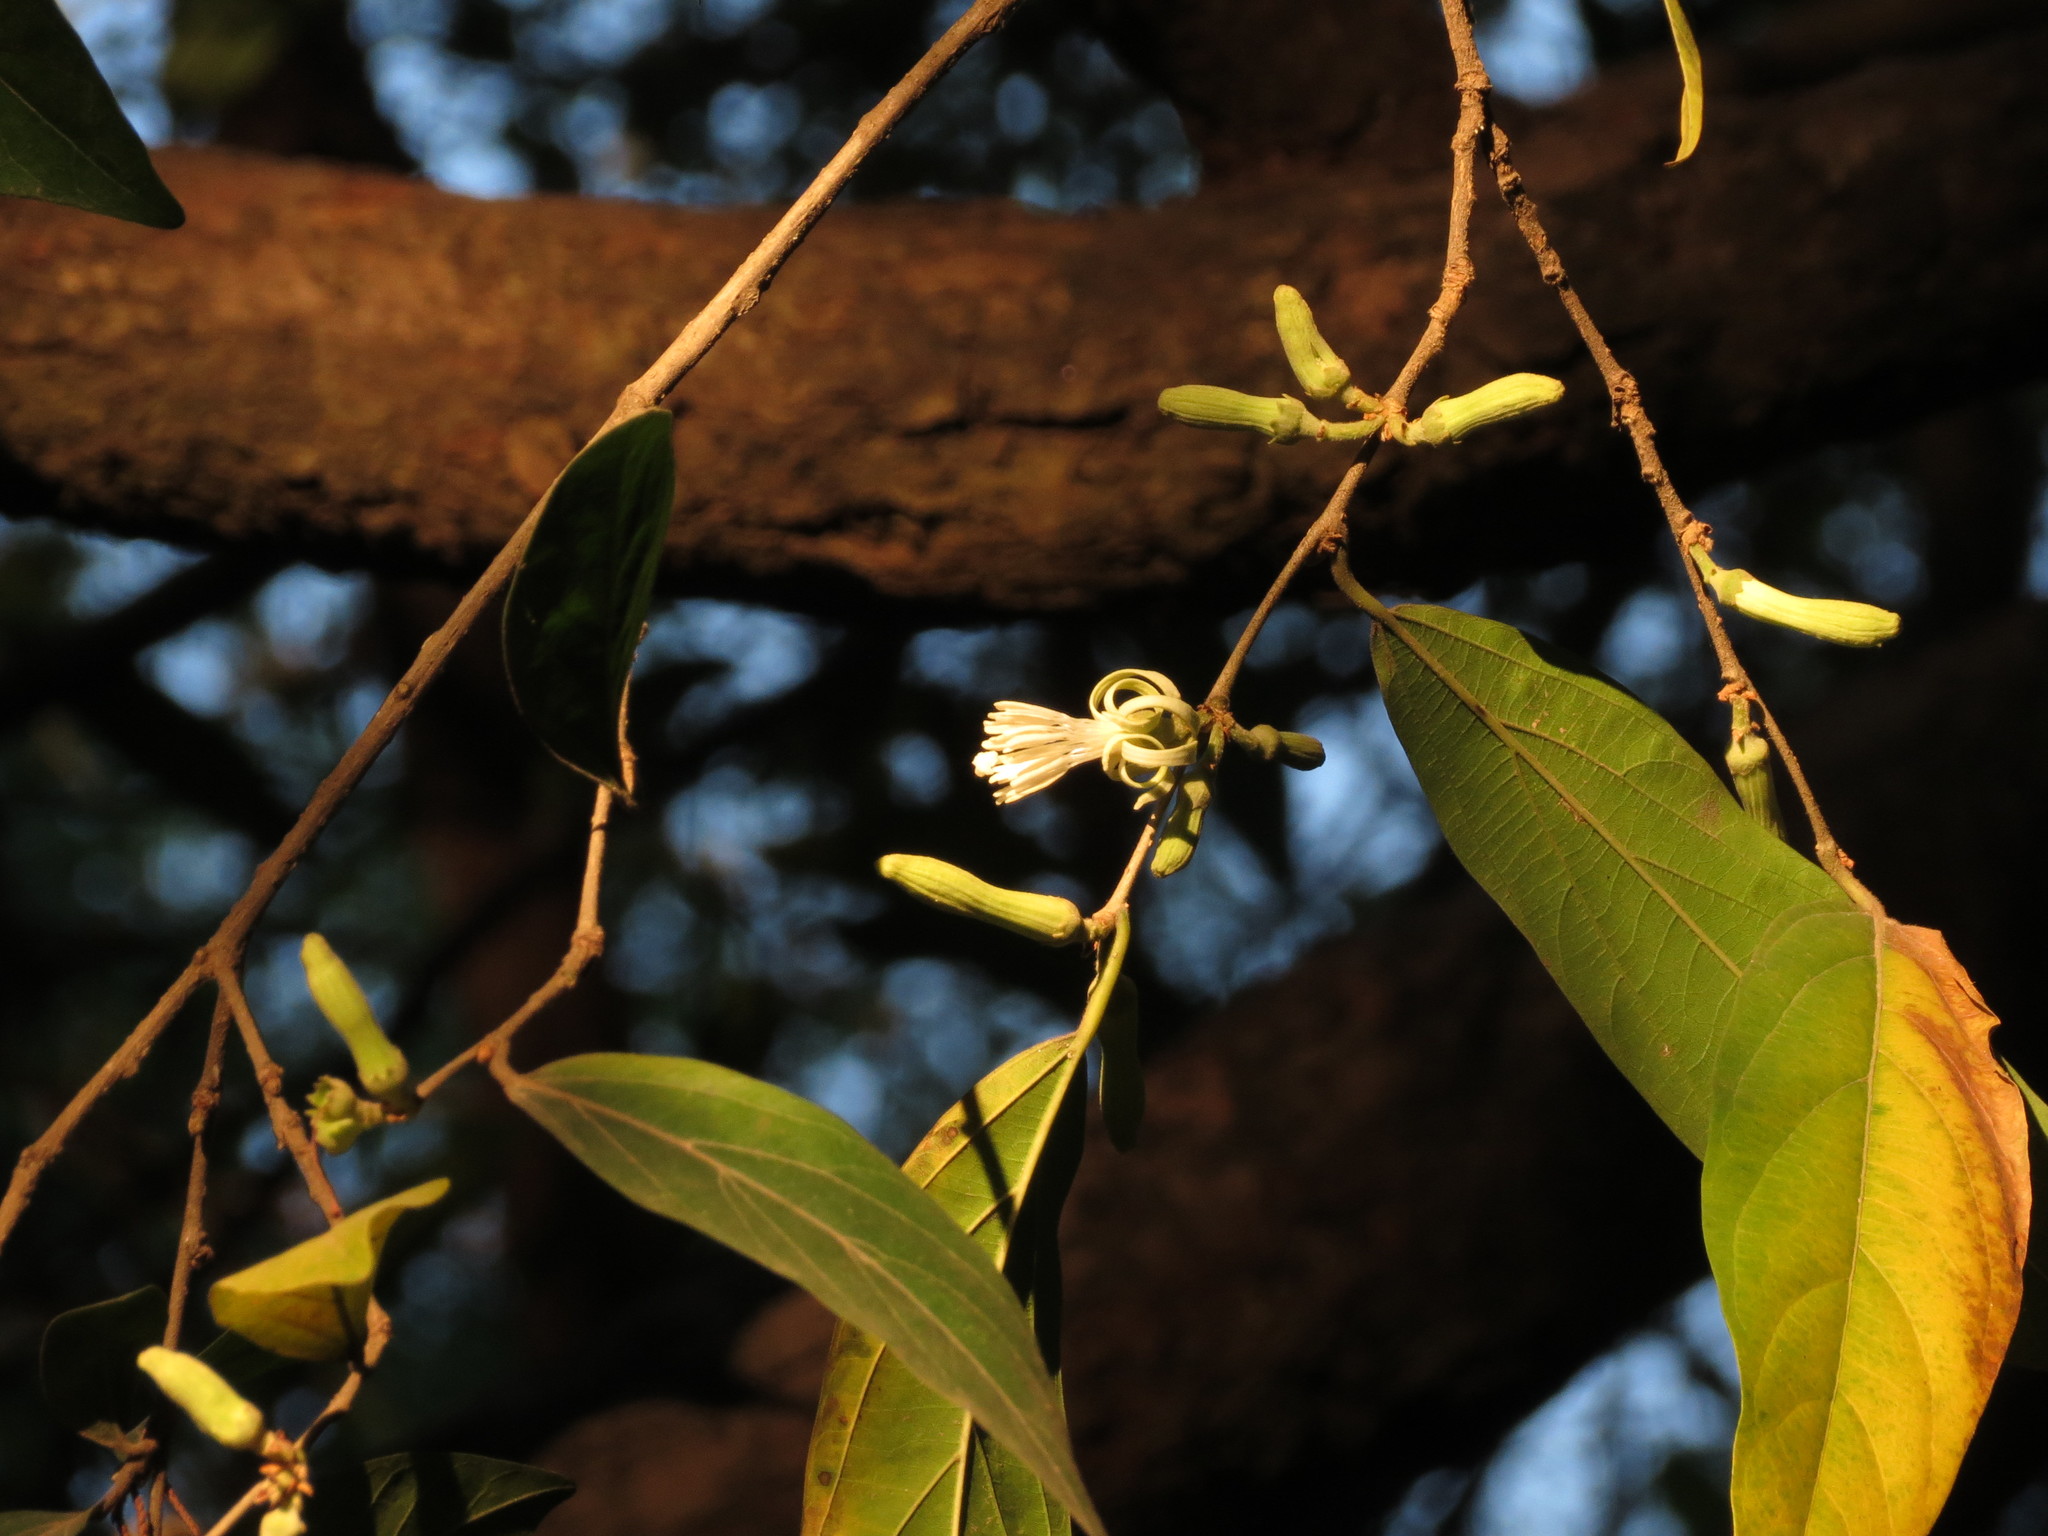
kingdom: Plantae
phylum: Tracheophyta
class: Magnoliopsida
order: Cornales
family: Cornaceae
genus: Alangium
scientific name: Alangium salviifolium
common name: Sage-leaf alangium
